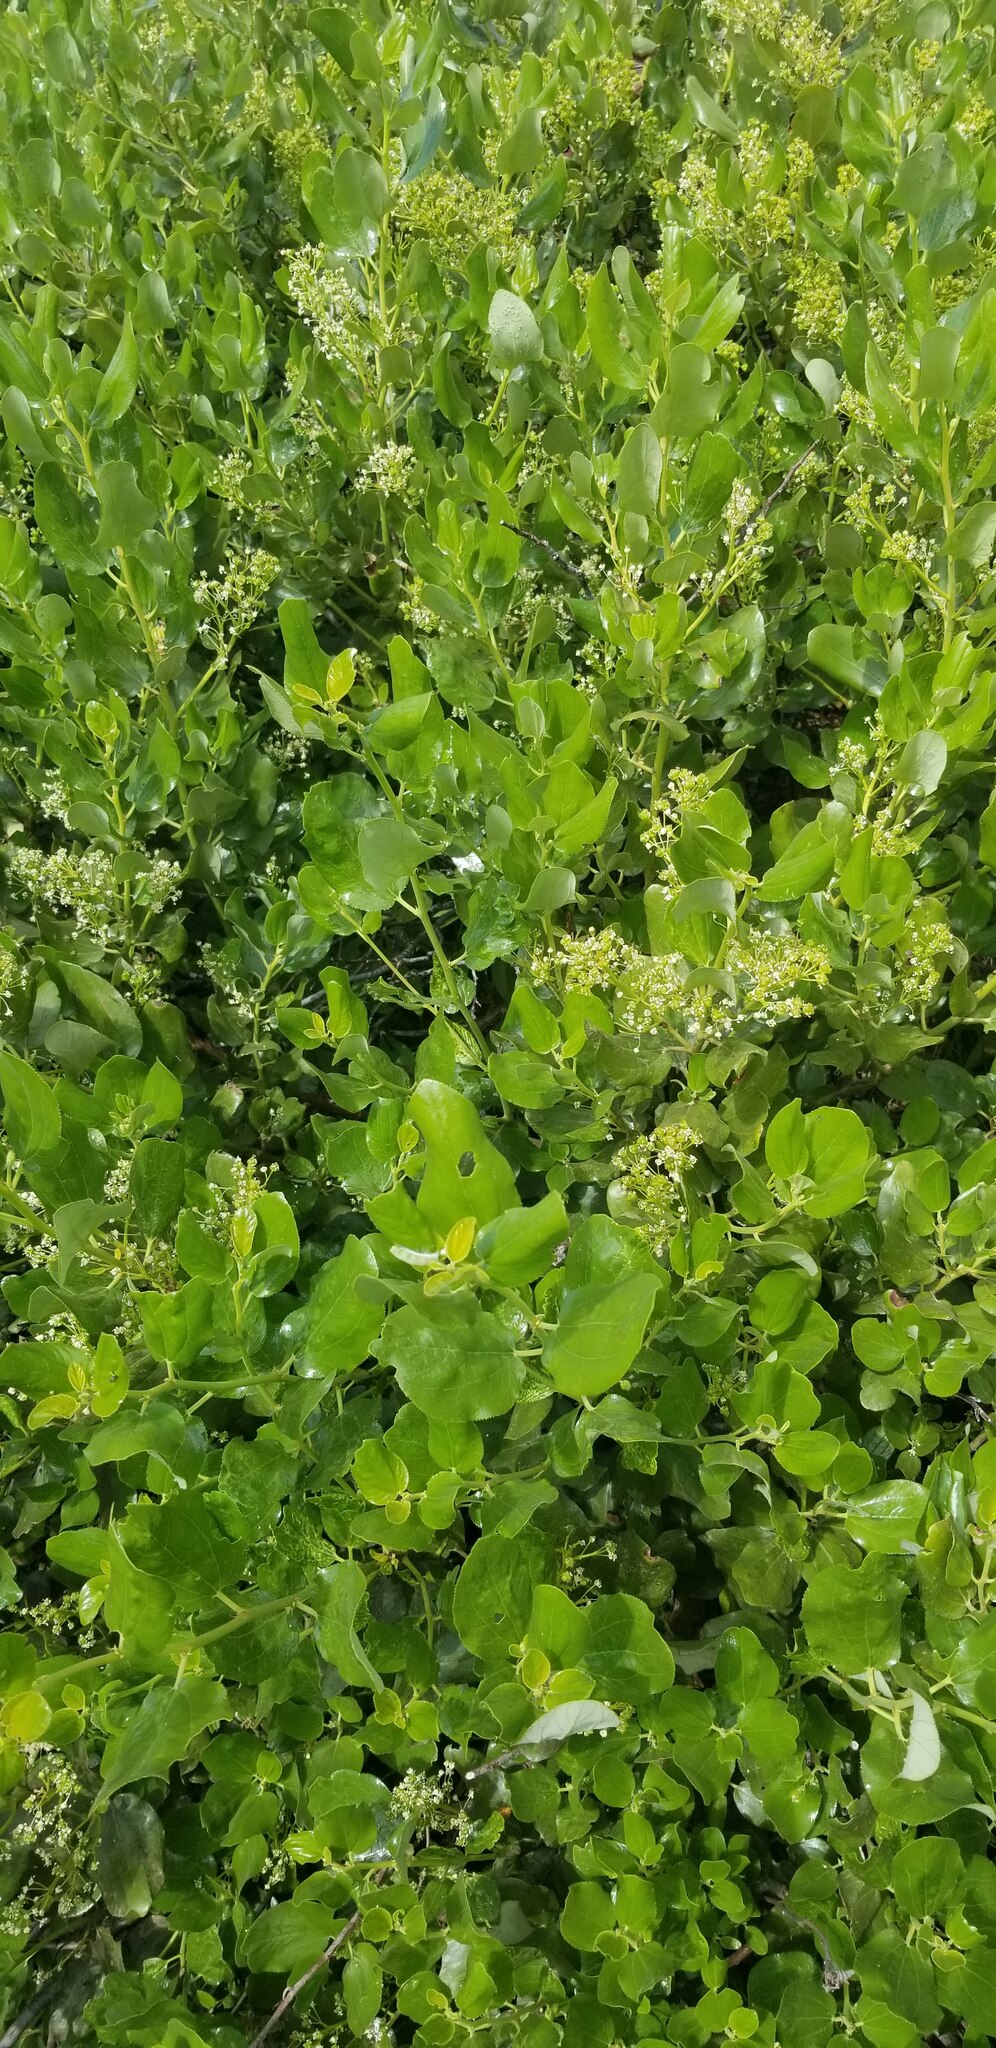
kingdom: Plantae
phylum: Tracheophyta
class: Magnoliopsida
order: Rosales
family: Rhamnaceae
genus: Ceanothus
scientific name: Ceanothus velutinus
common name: Snowbrush
